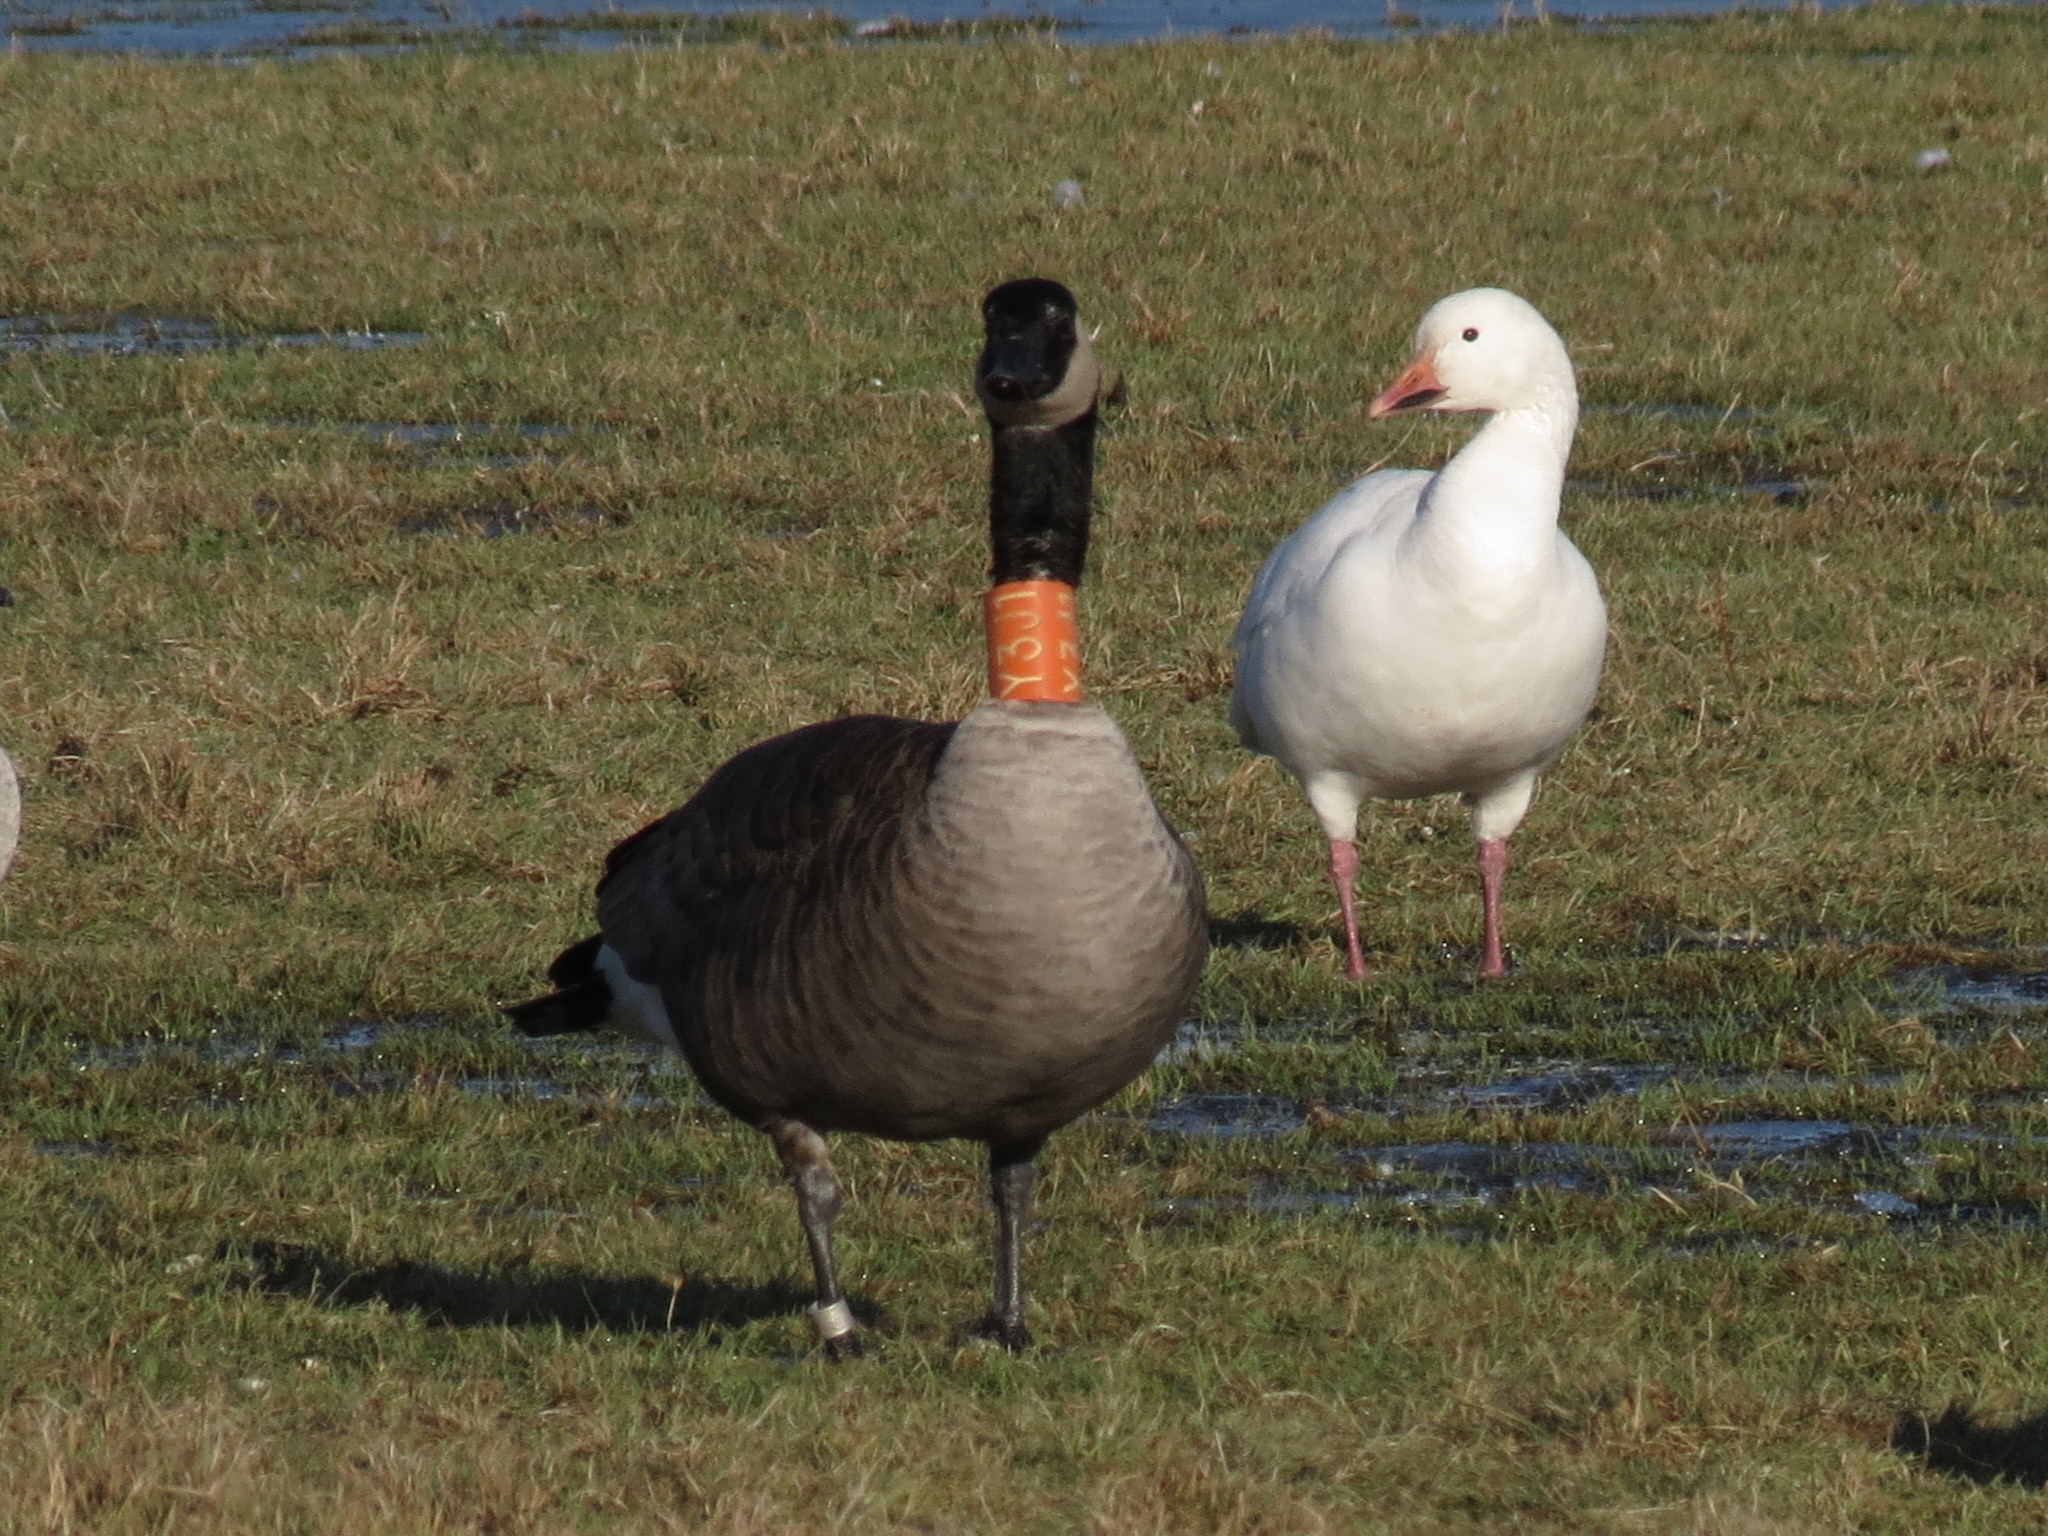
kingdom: Animalia
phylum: Chordata
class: Aves
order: Anseriformes
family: Anatidae
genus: Branta
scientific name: Branta canadensis
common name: Canada goose
